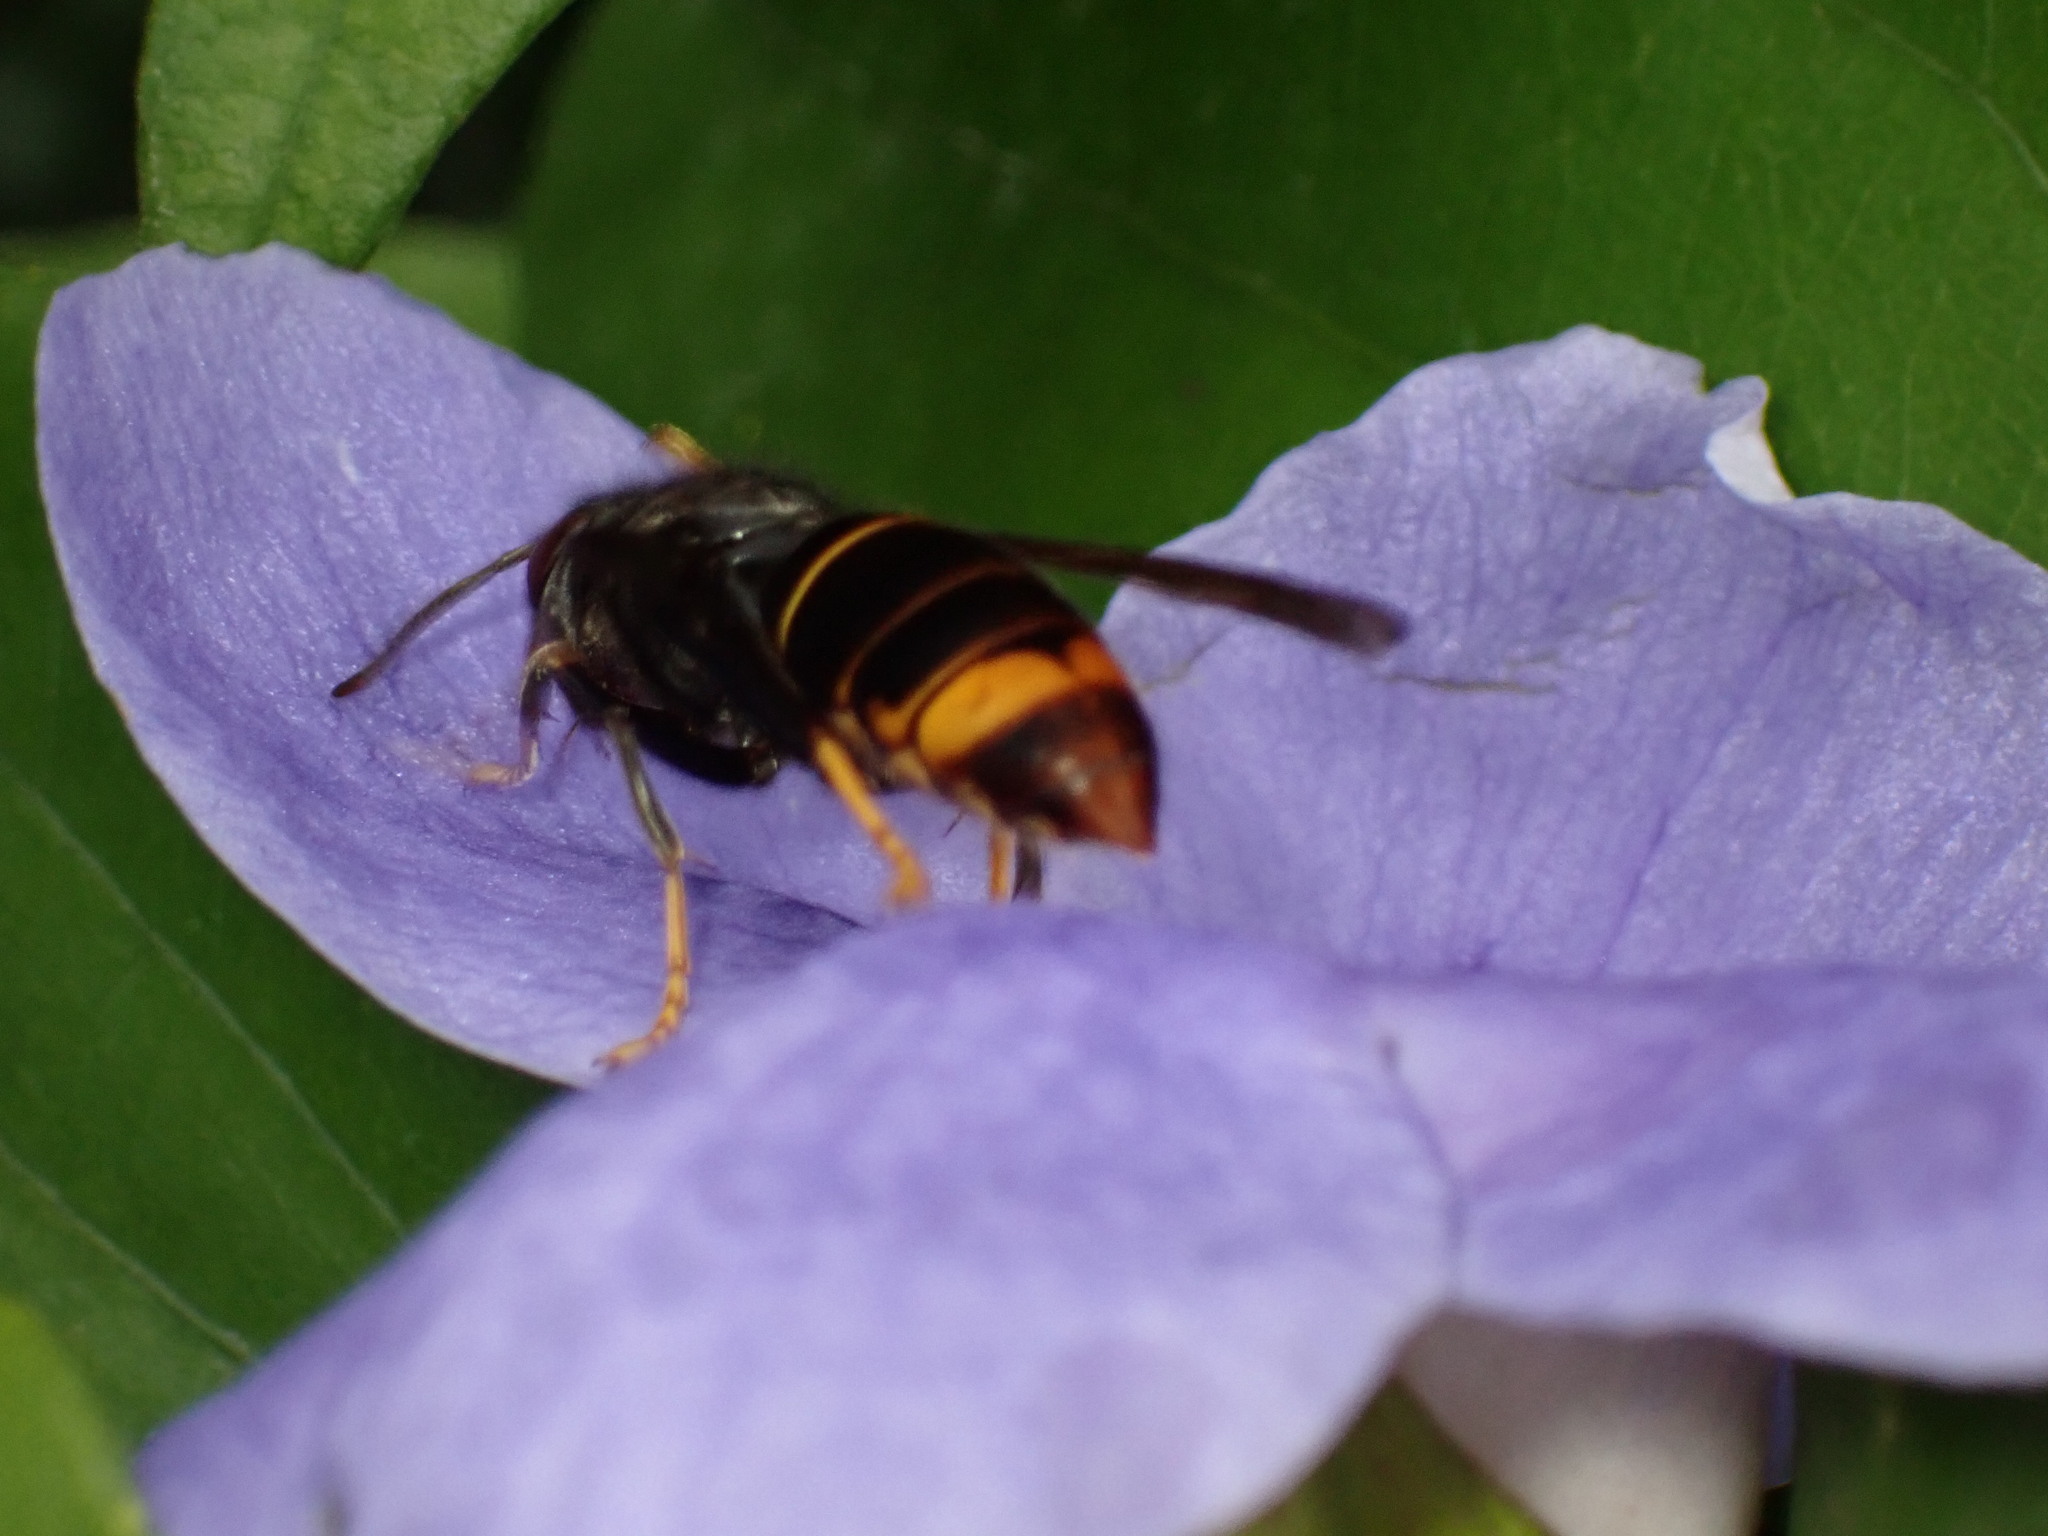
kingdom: Animalia
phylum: Arthropoda
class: Insecta
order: Hymenoptera
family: Vespidae
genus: Vespa
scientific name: Vespa velutina
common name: Asian hornet
